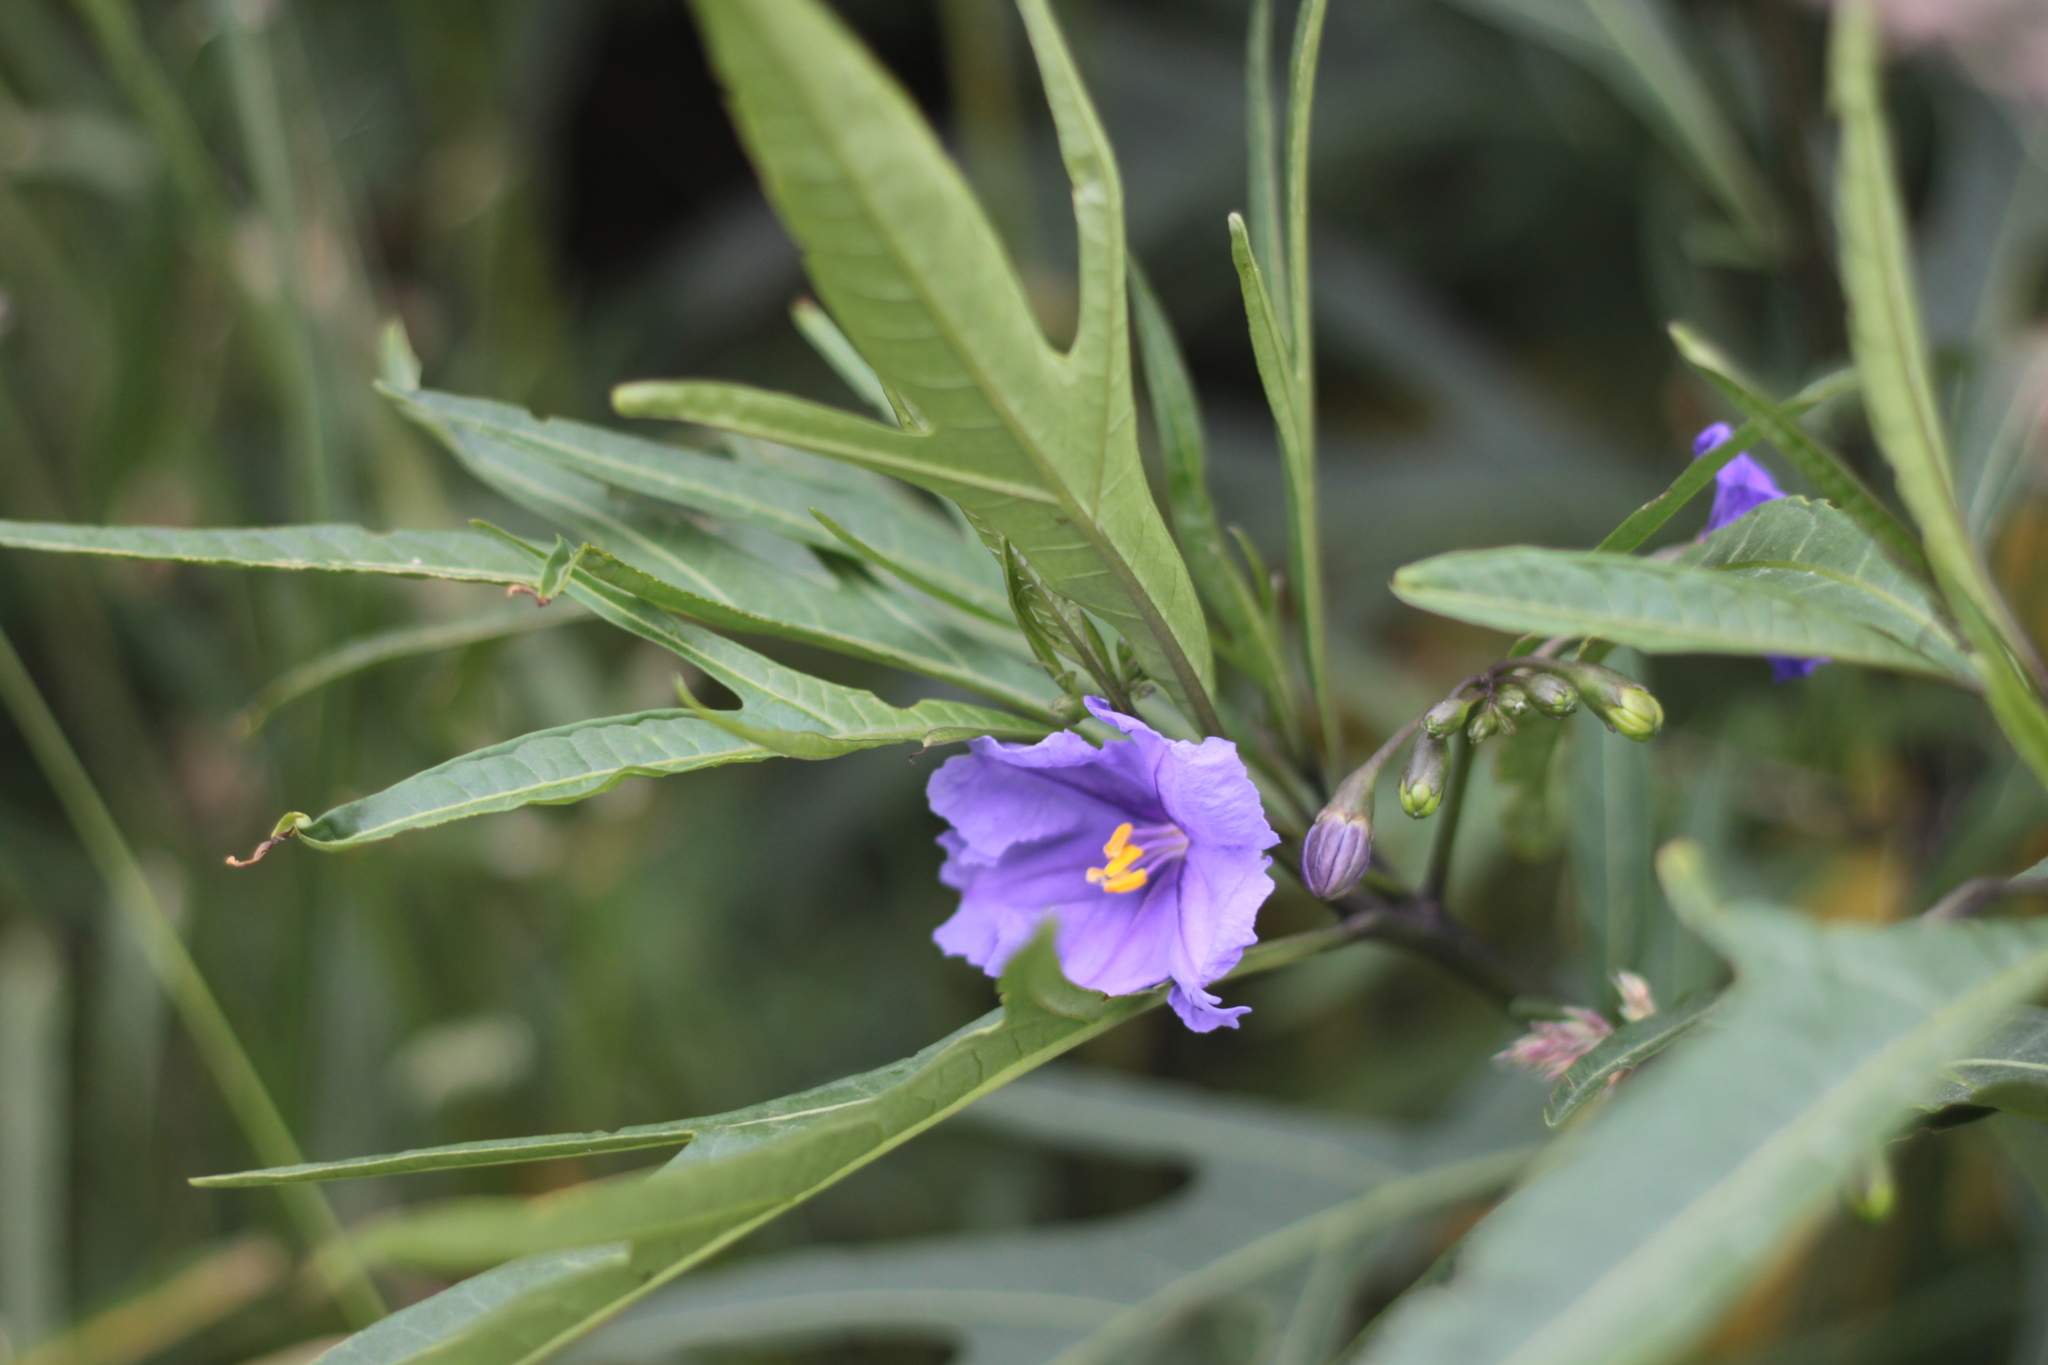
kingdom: Plantae
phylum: Tracheophyta
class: Magnoliopsida
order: Solanales
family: Solanaceae
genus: Solanum
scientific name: Solanum laciniatum
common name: Kangaroo-apple
